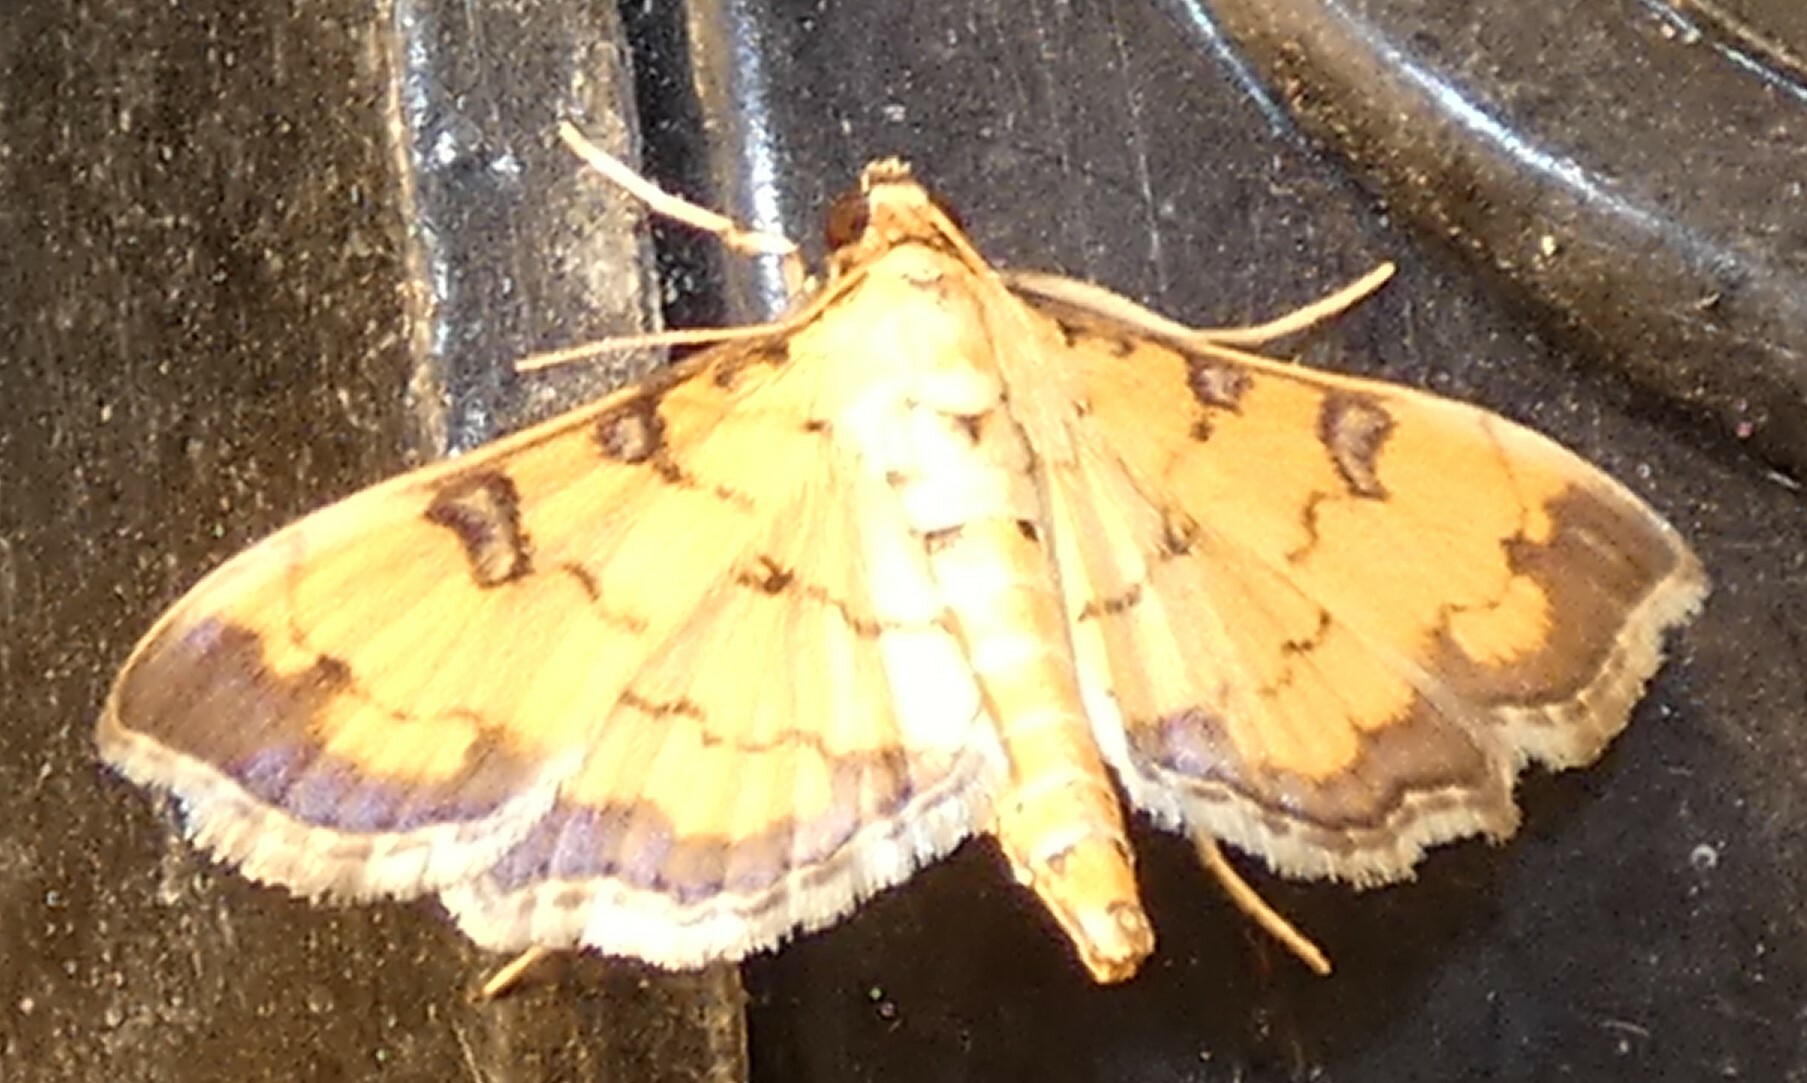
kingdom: Animalia
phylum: Arthropoda
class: Insecta
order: Lepidoptera
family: Crambidae
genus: Ategumia
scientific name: Ategumia ebulealis
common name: Moth
